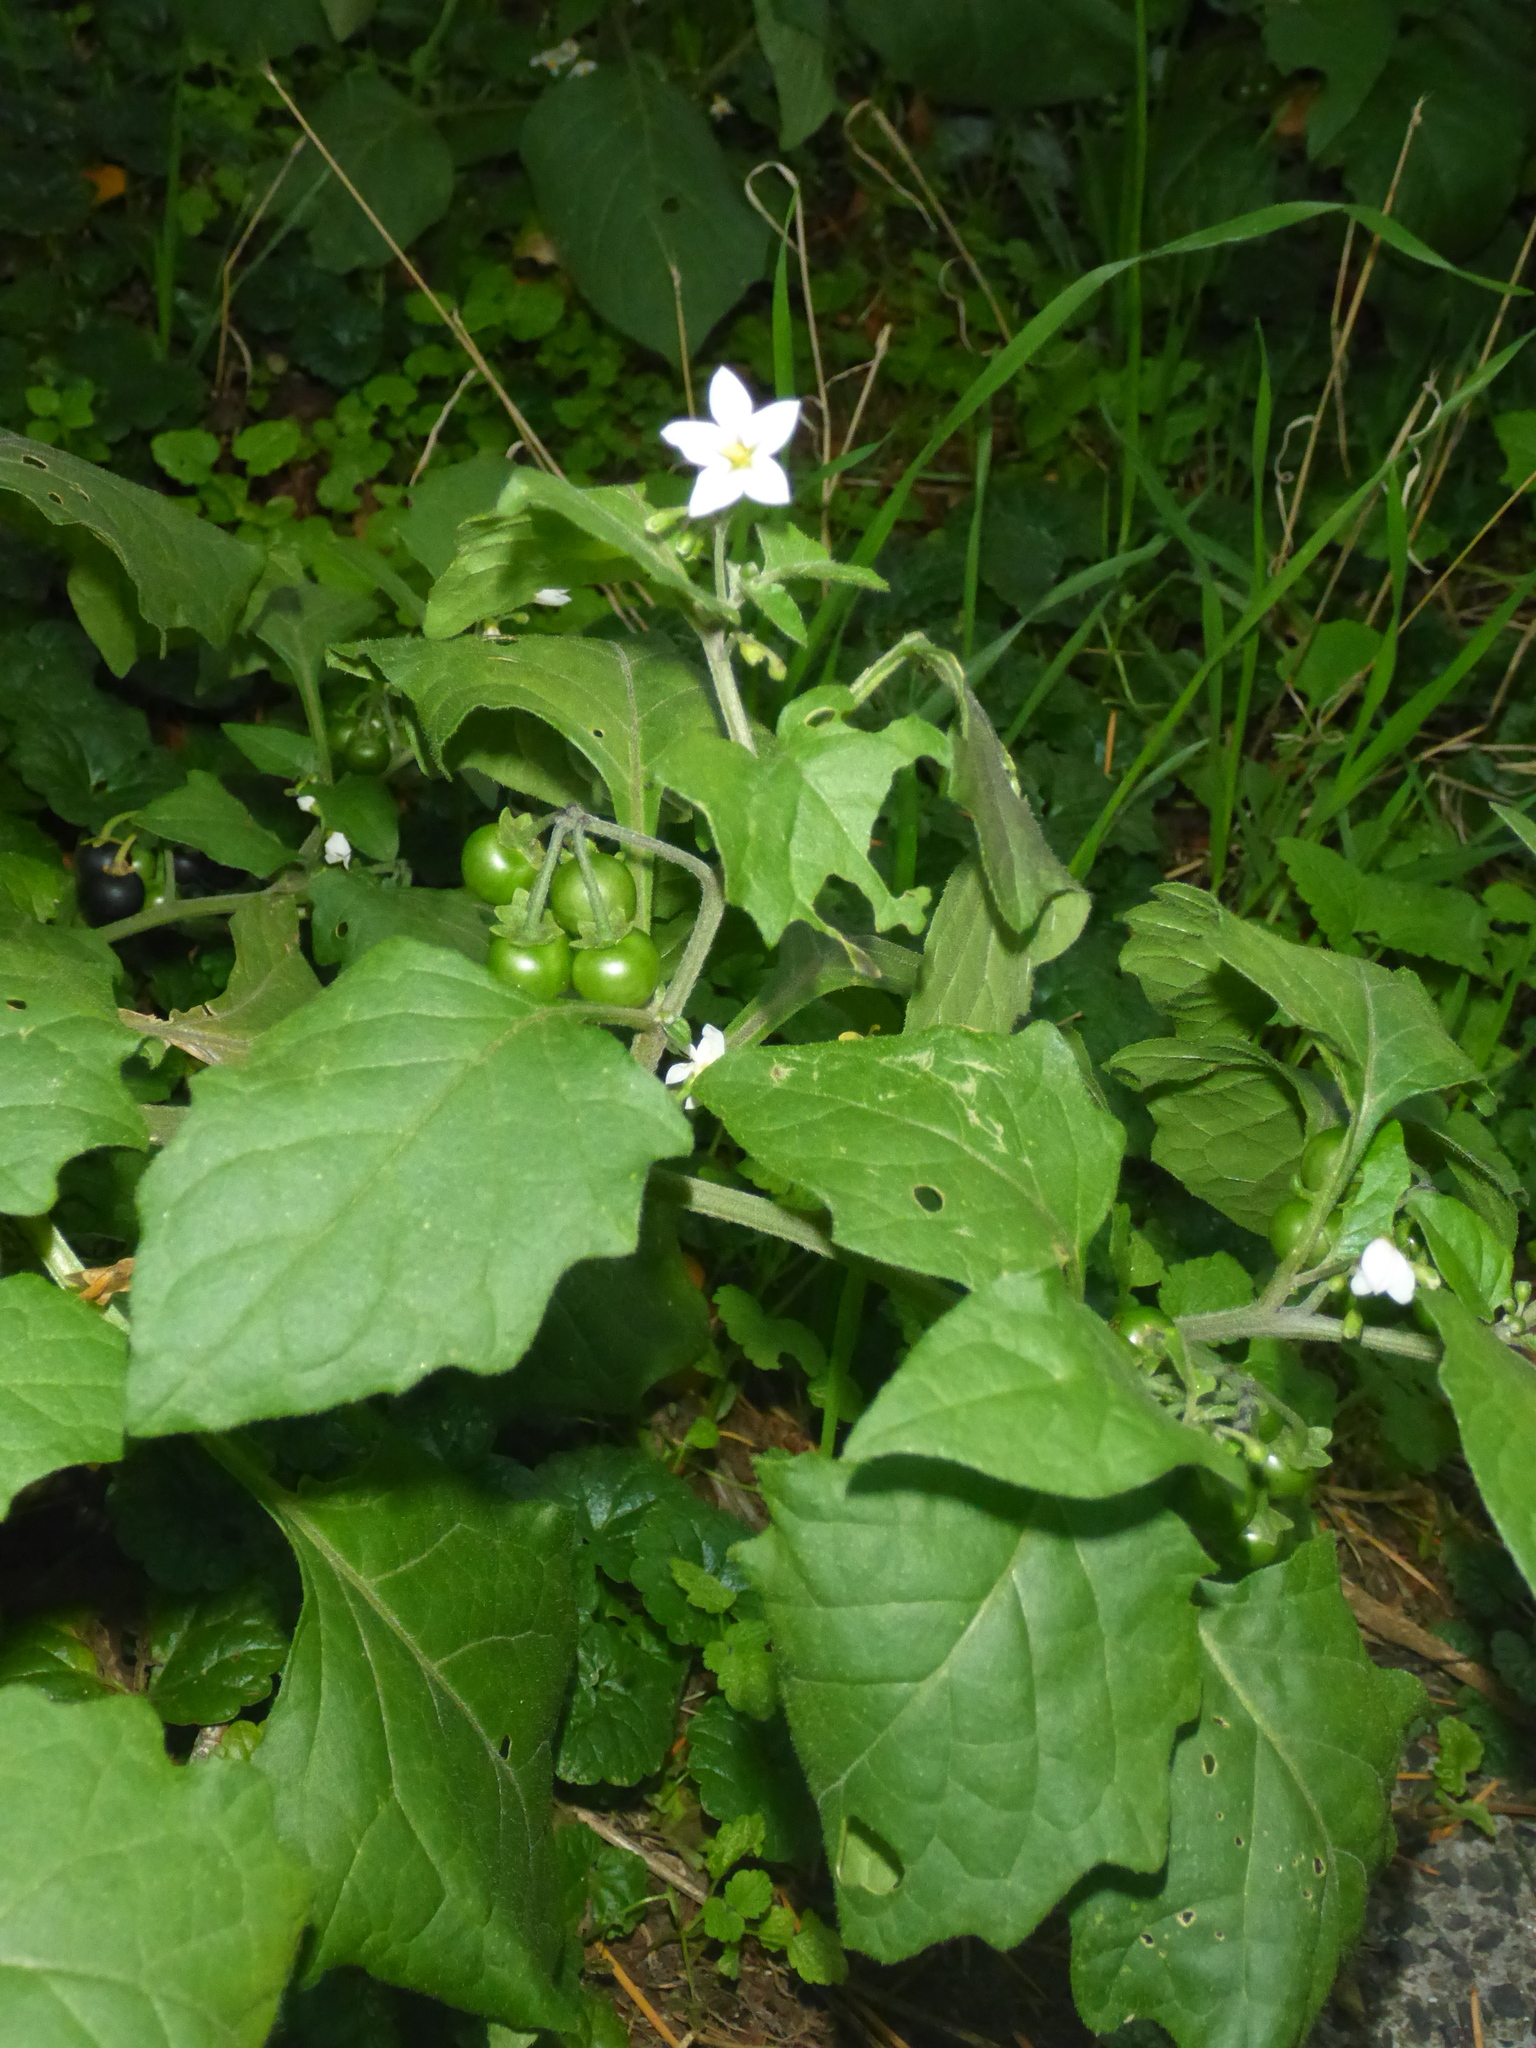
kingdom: Plantae
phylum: Tracheophyta
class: Magnoliopsida
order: Solanales
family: Solanaceae
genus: Solanum
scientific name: Solanum nigrum
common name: Black nightshade
